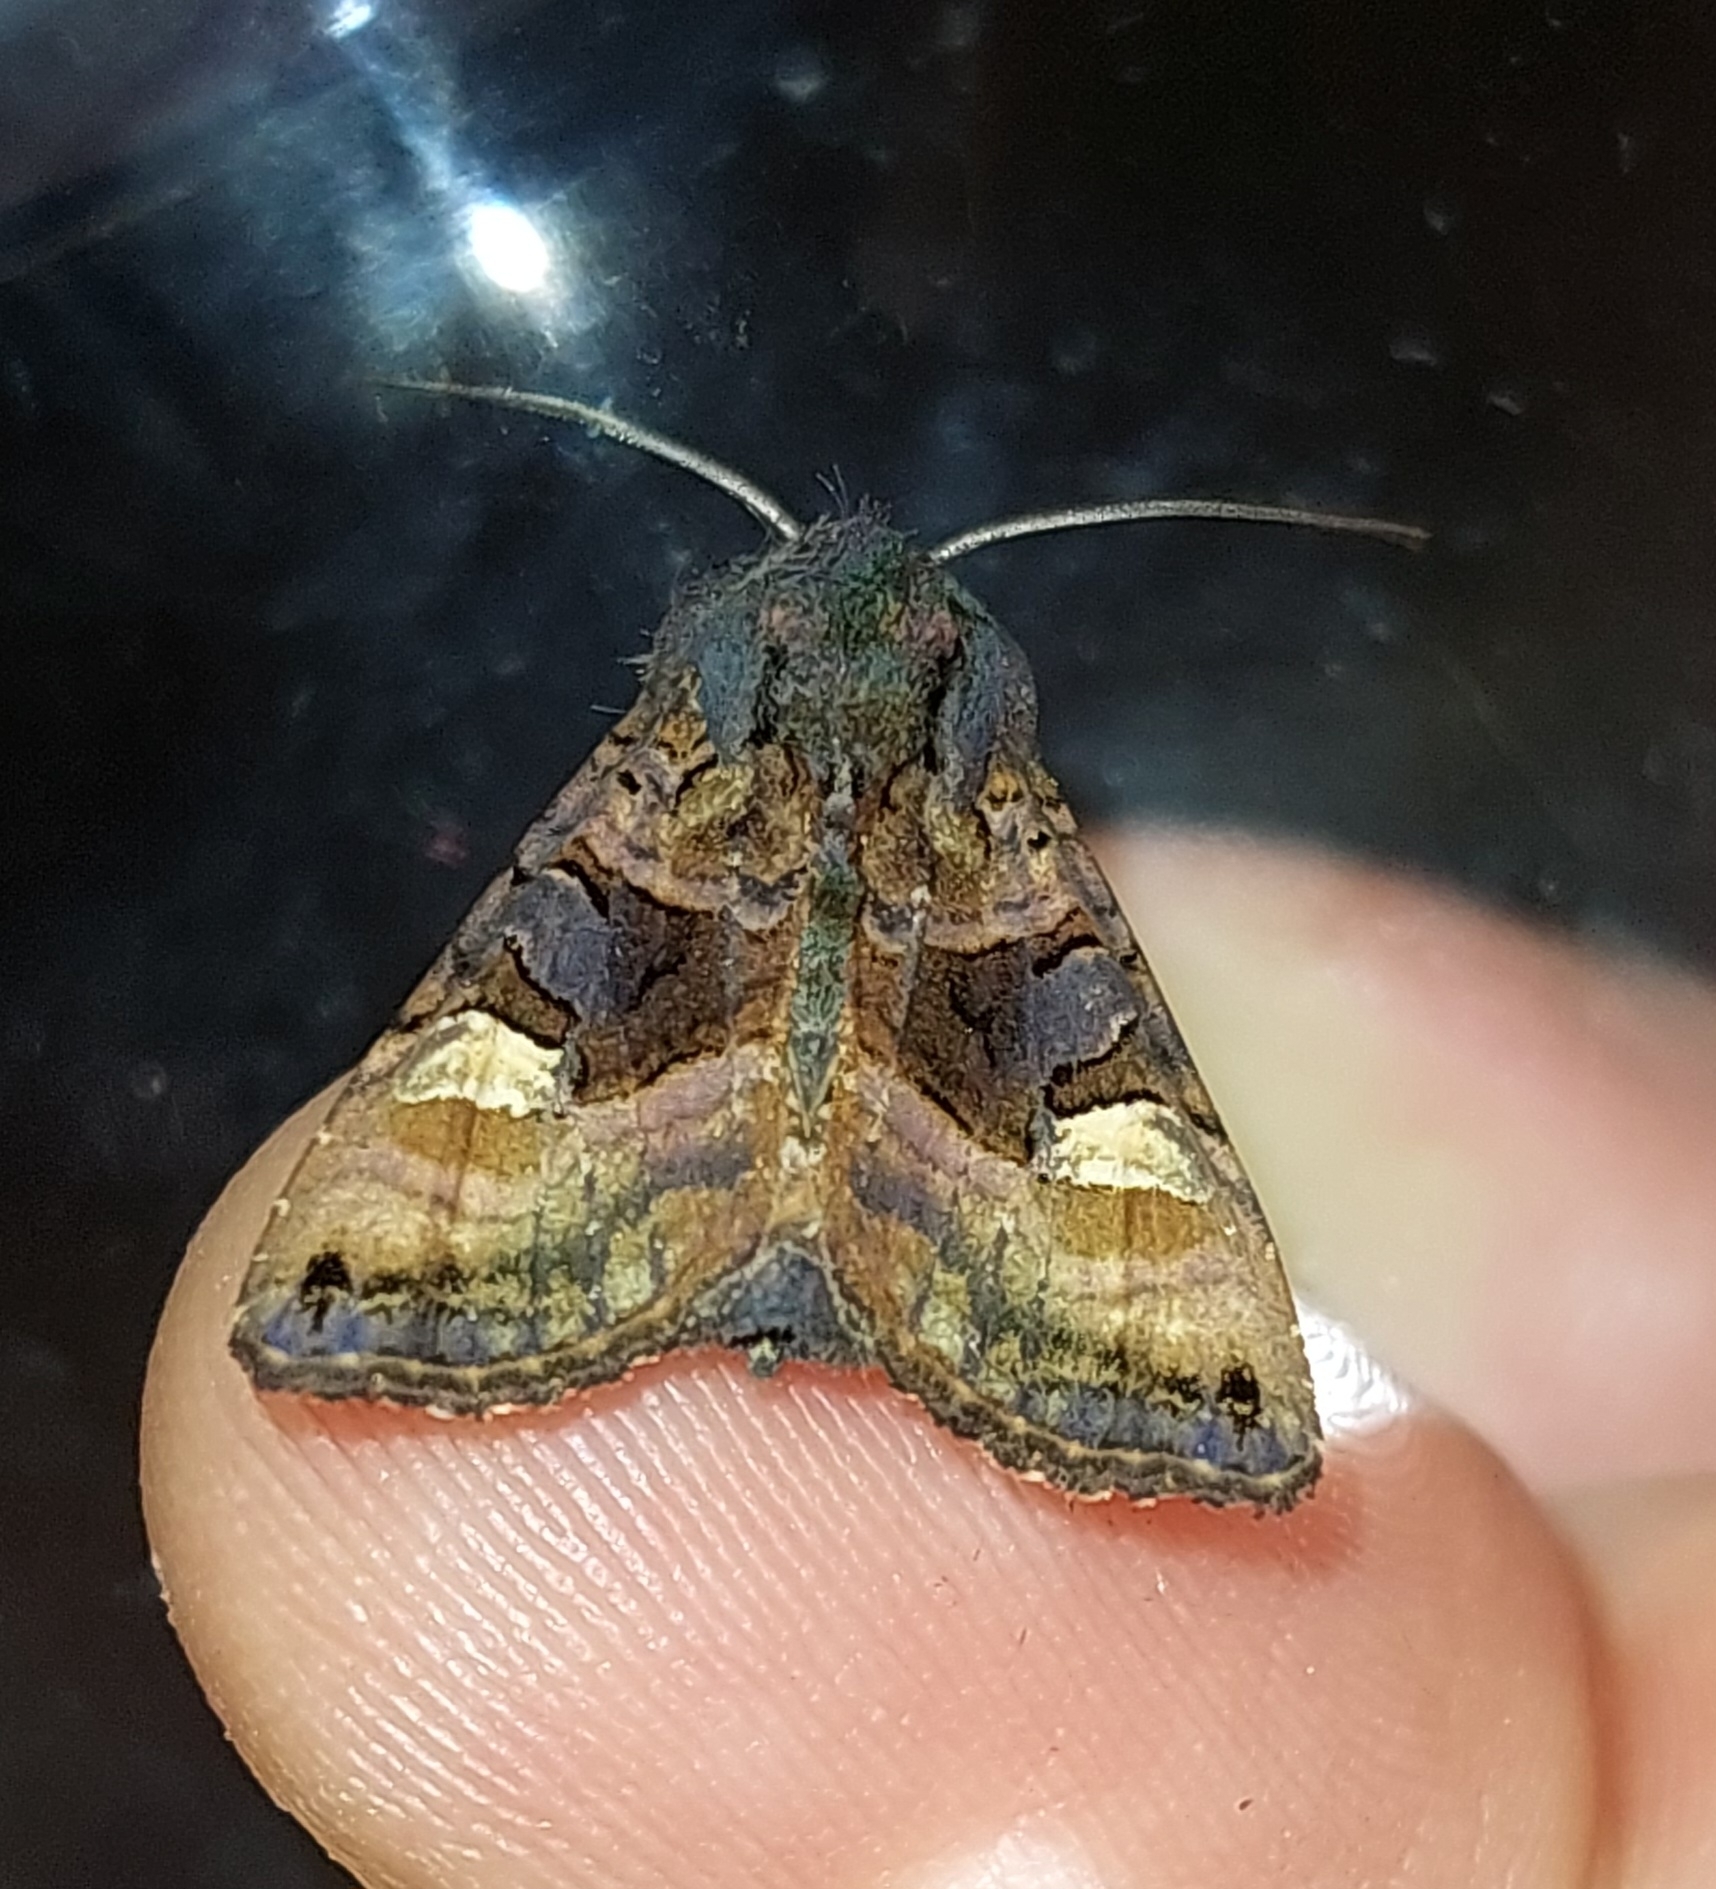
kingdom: Animalia
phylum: Arthropoda
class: Insecta
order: Lepidoptera
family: Noctuidae
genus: Euplexia
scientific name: Euplexia lucipara
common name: Small angle shades
